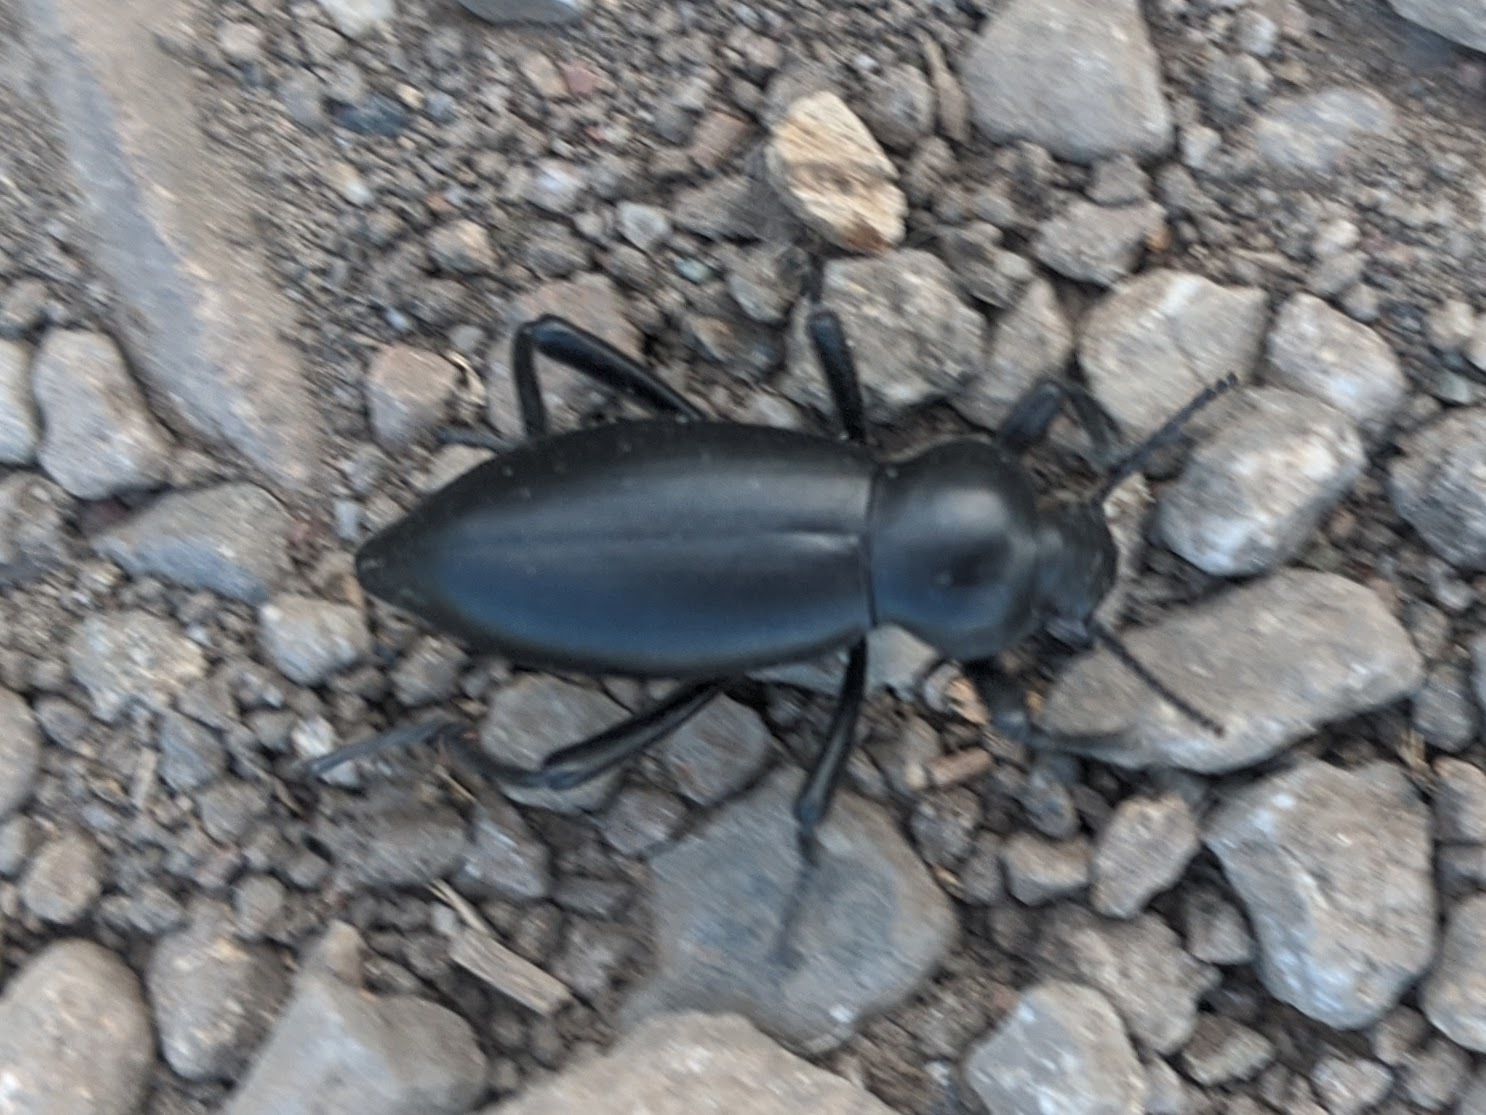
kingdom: Animalia
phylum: Arthropoda
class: Insecta
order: Coleoptera
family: Tenebrionidae
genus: Eleodes
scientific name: Eleodes dentipes
